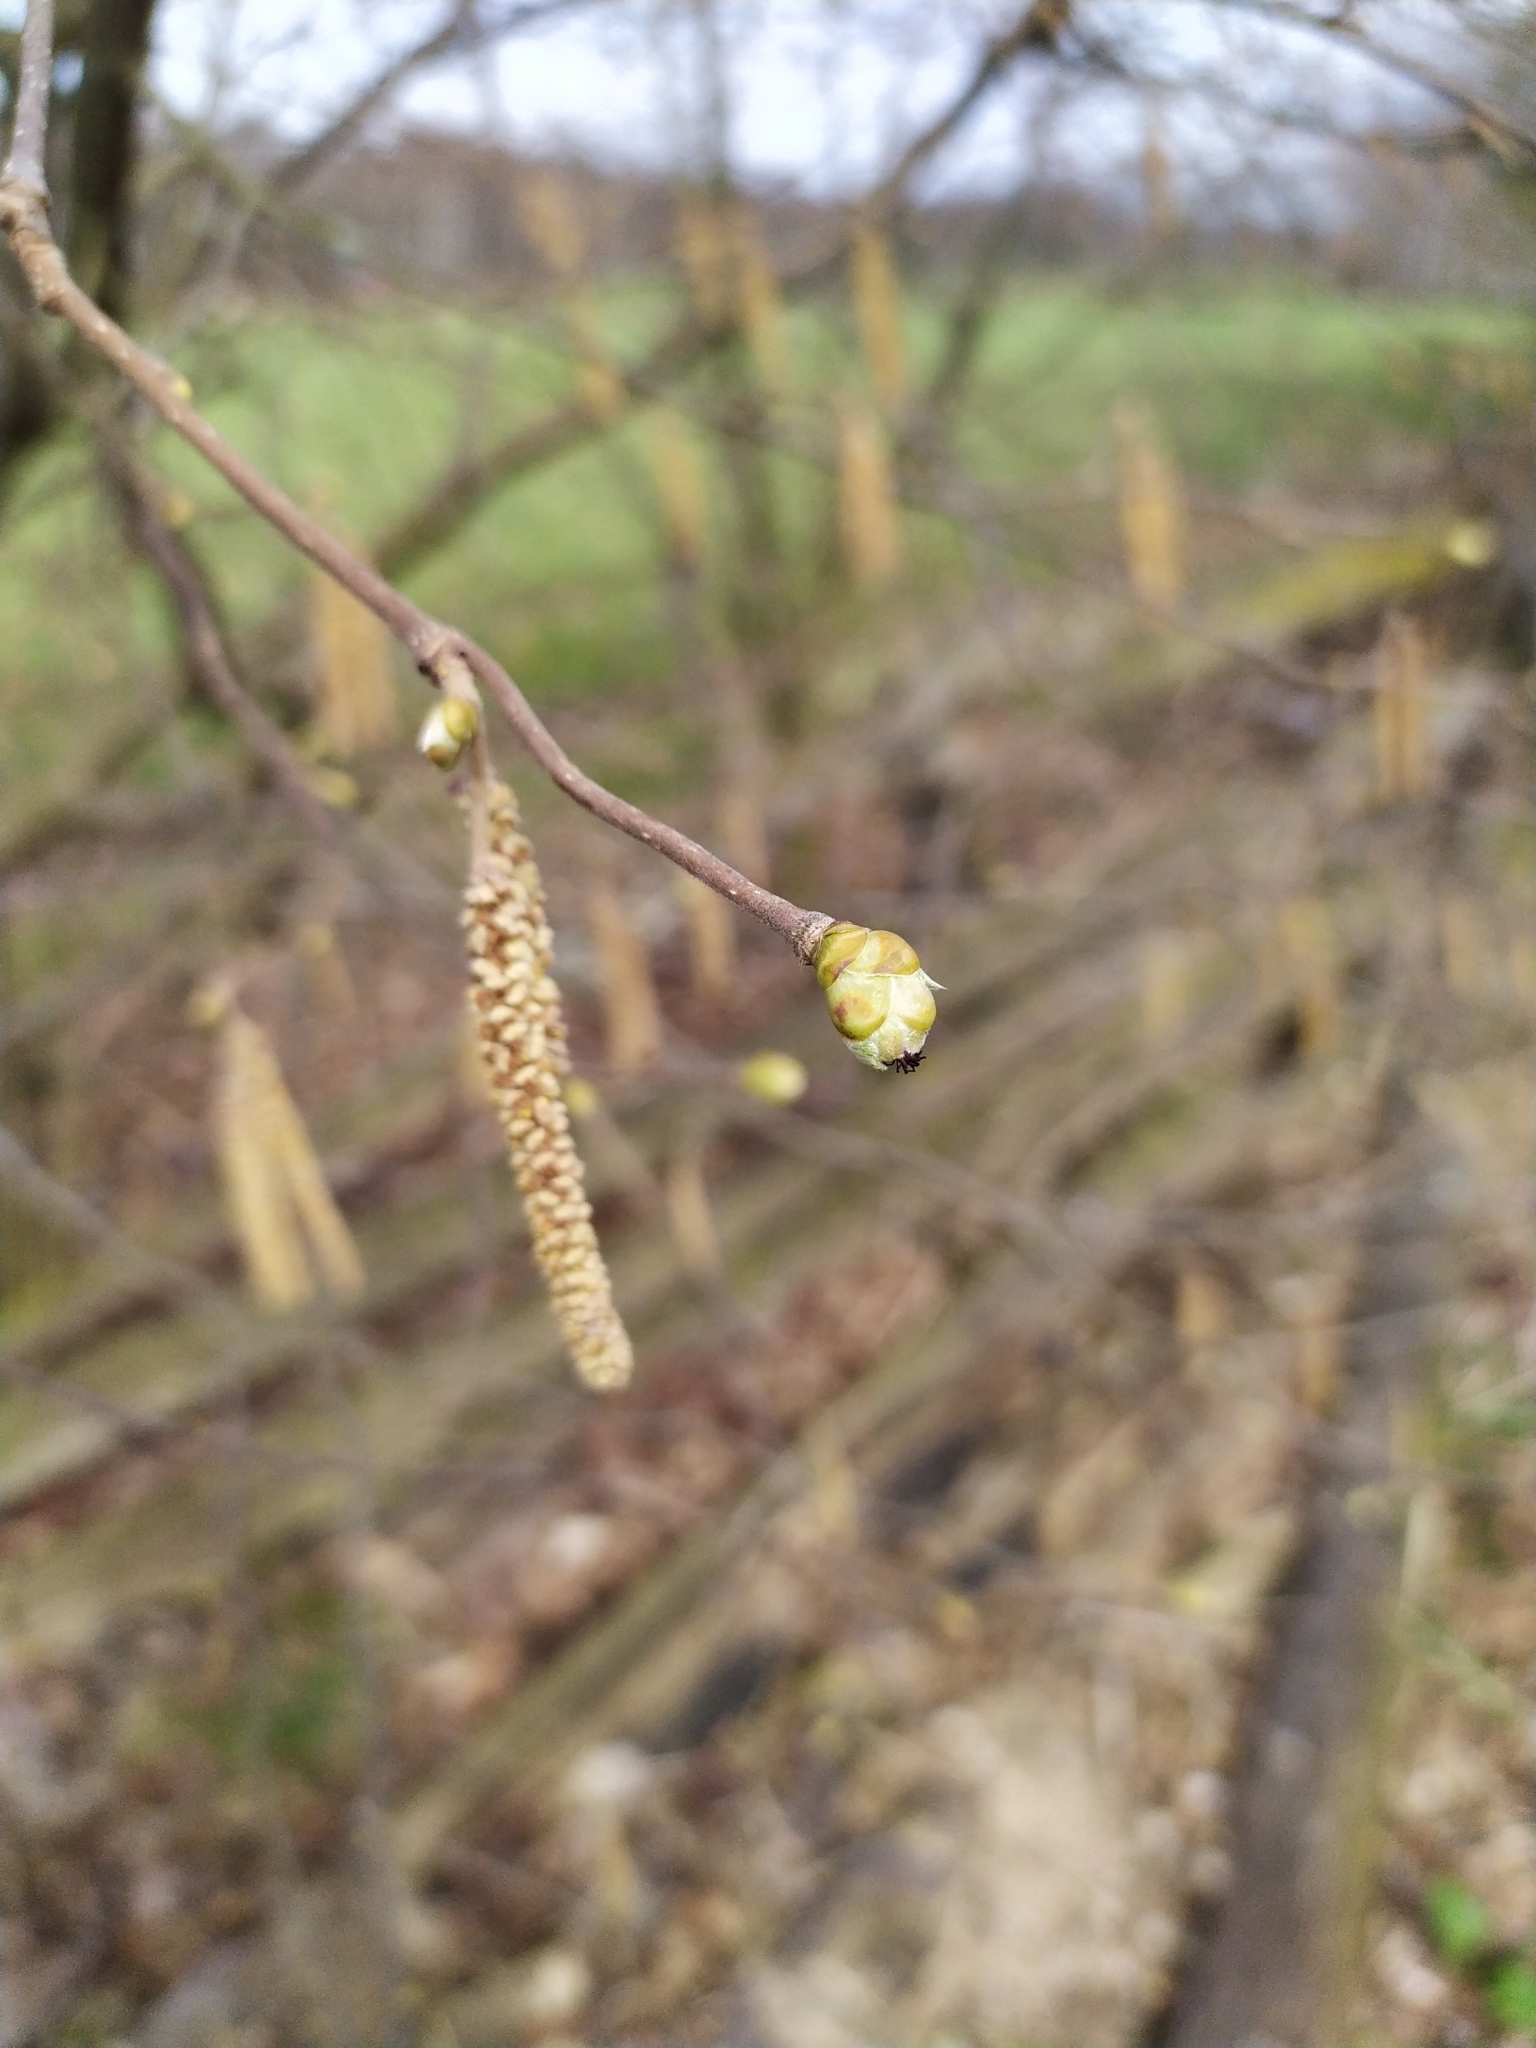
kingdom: Plantae
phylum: Tracheophyta
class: Magnoliopsida
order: Fagales
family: Betulaceae
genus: Corylus
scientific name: Corylus avellana
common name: European hazel
